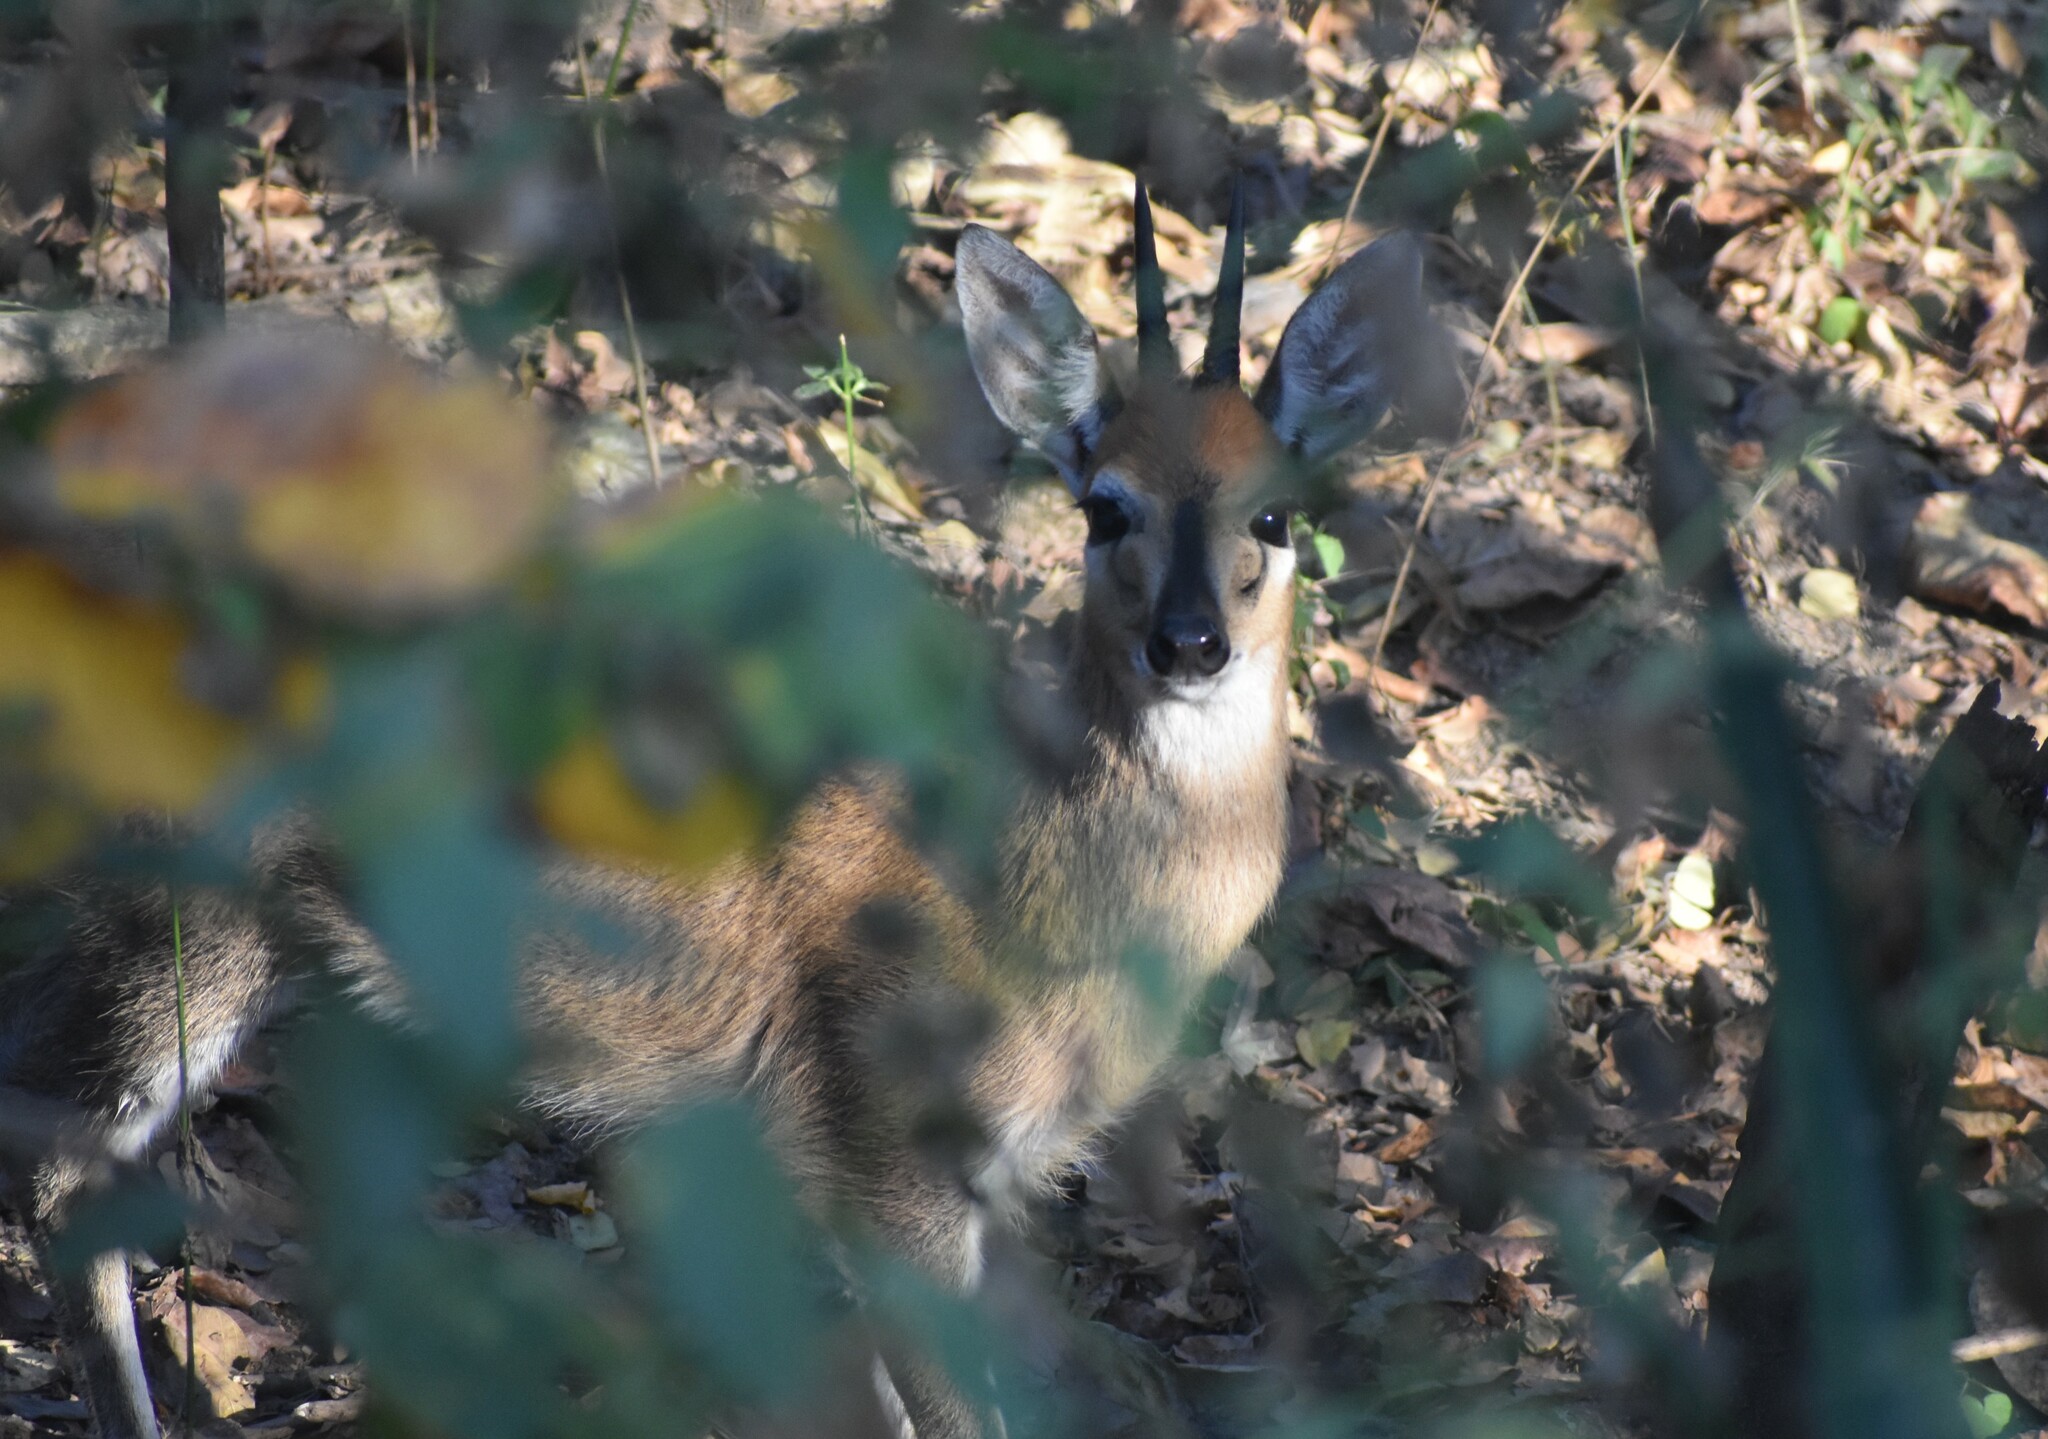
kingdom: Animalia
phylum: Chordata
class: Mammalia
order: Artiodactyla
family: Bovidae
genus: Sylvicapra
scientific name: Sylvicapra grimmia
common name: Bush duiker
